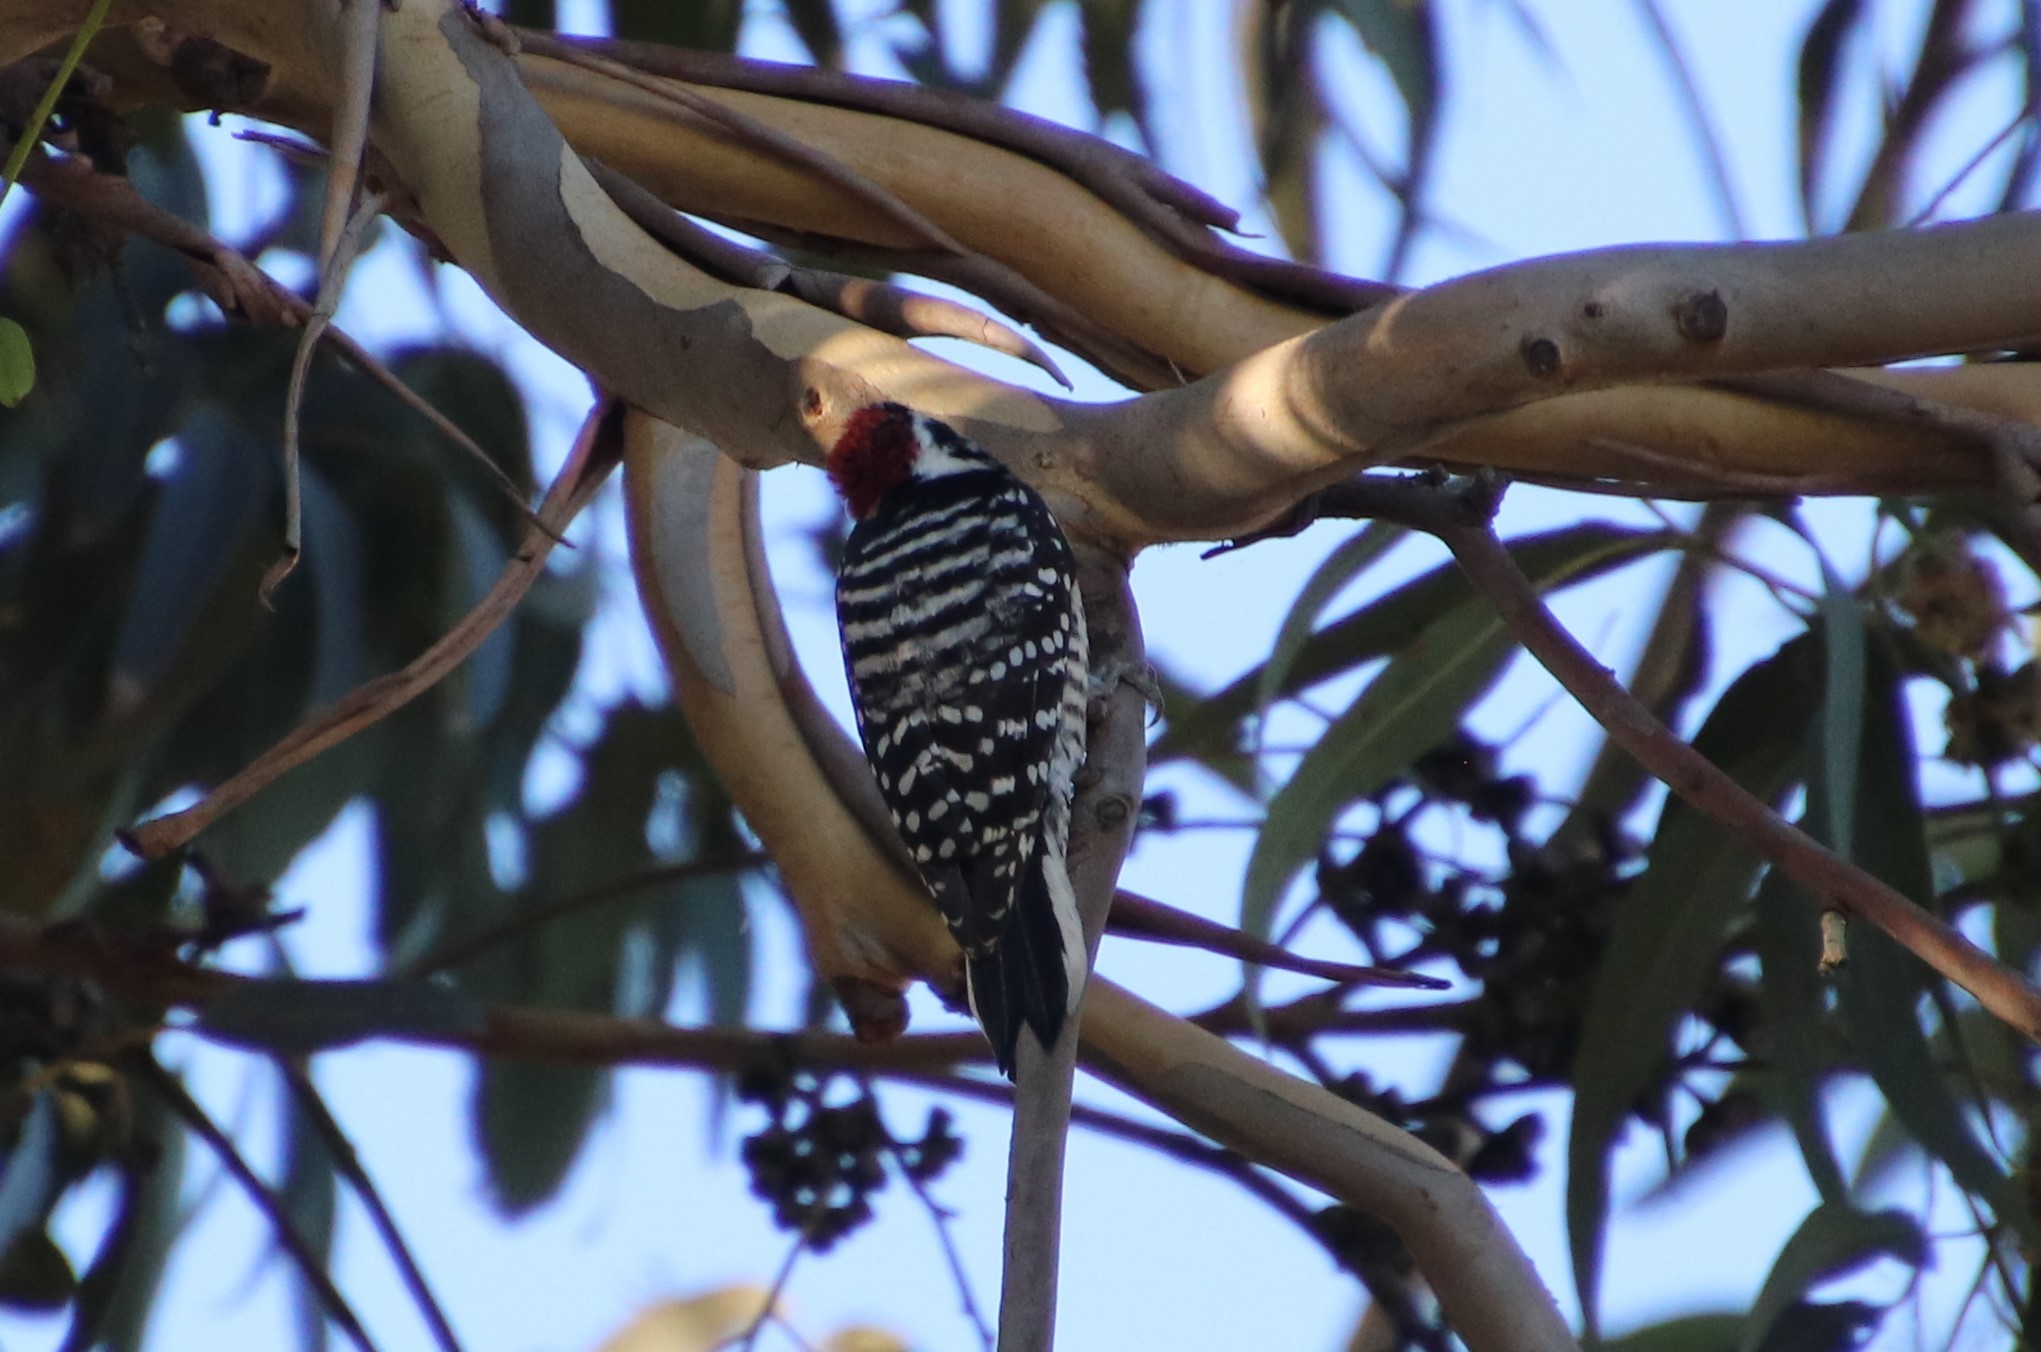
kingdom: Animalia
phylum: Chordata
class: Aves
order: Piciformes
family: Picidae
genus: Dryobates
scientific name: Dryobates nuttallii
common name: Nuttall's woodpecker
